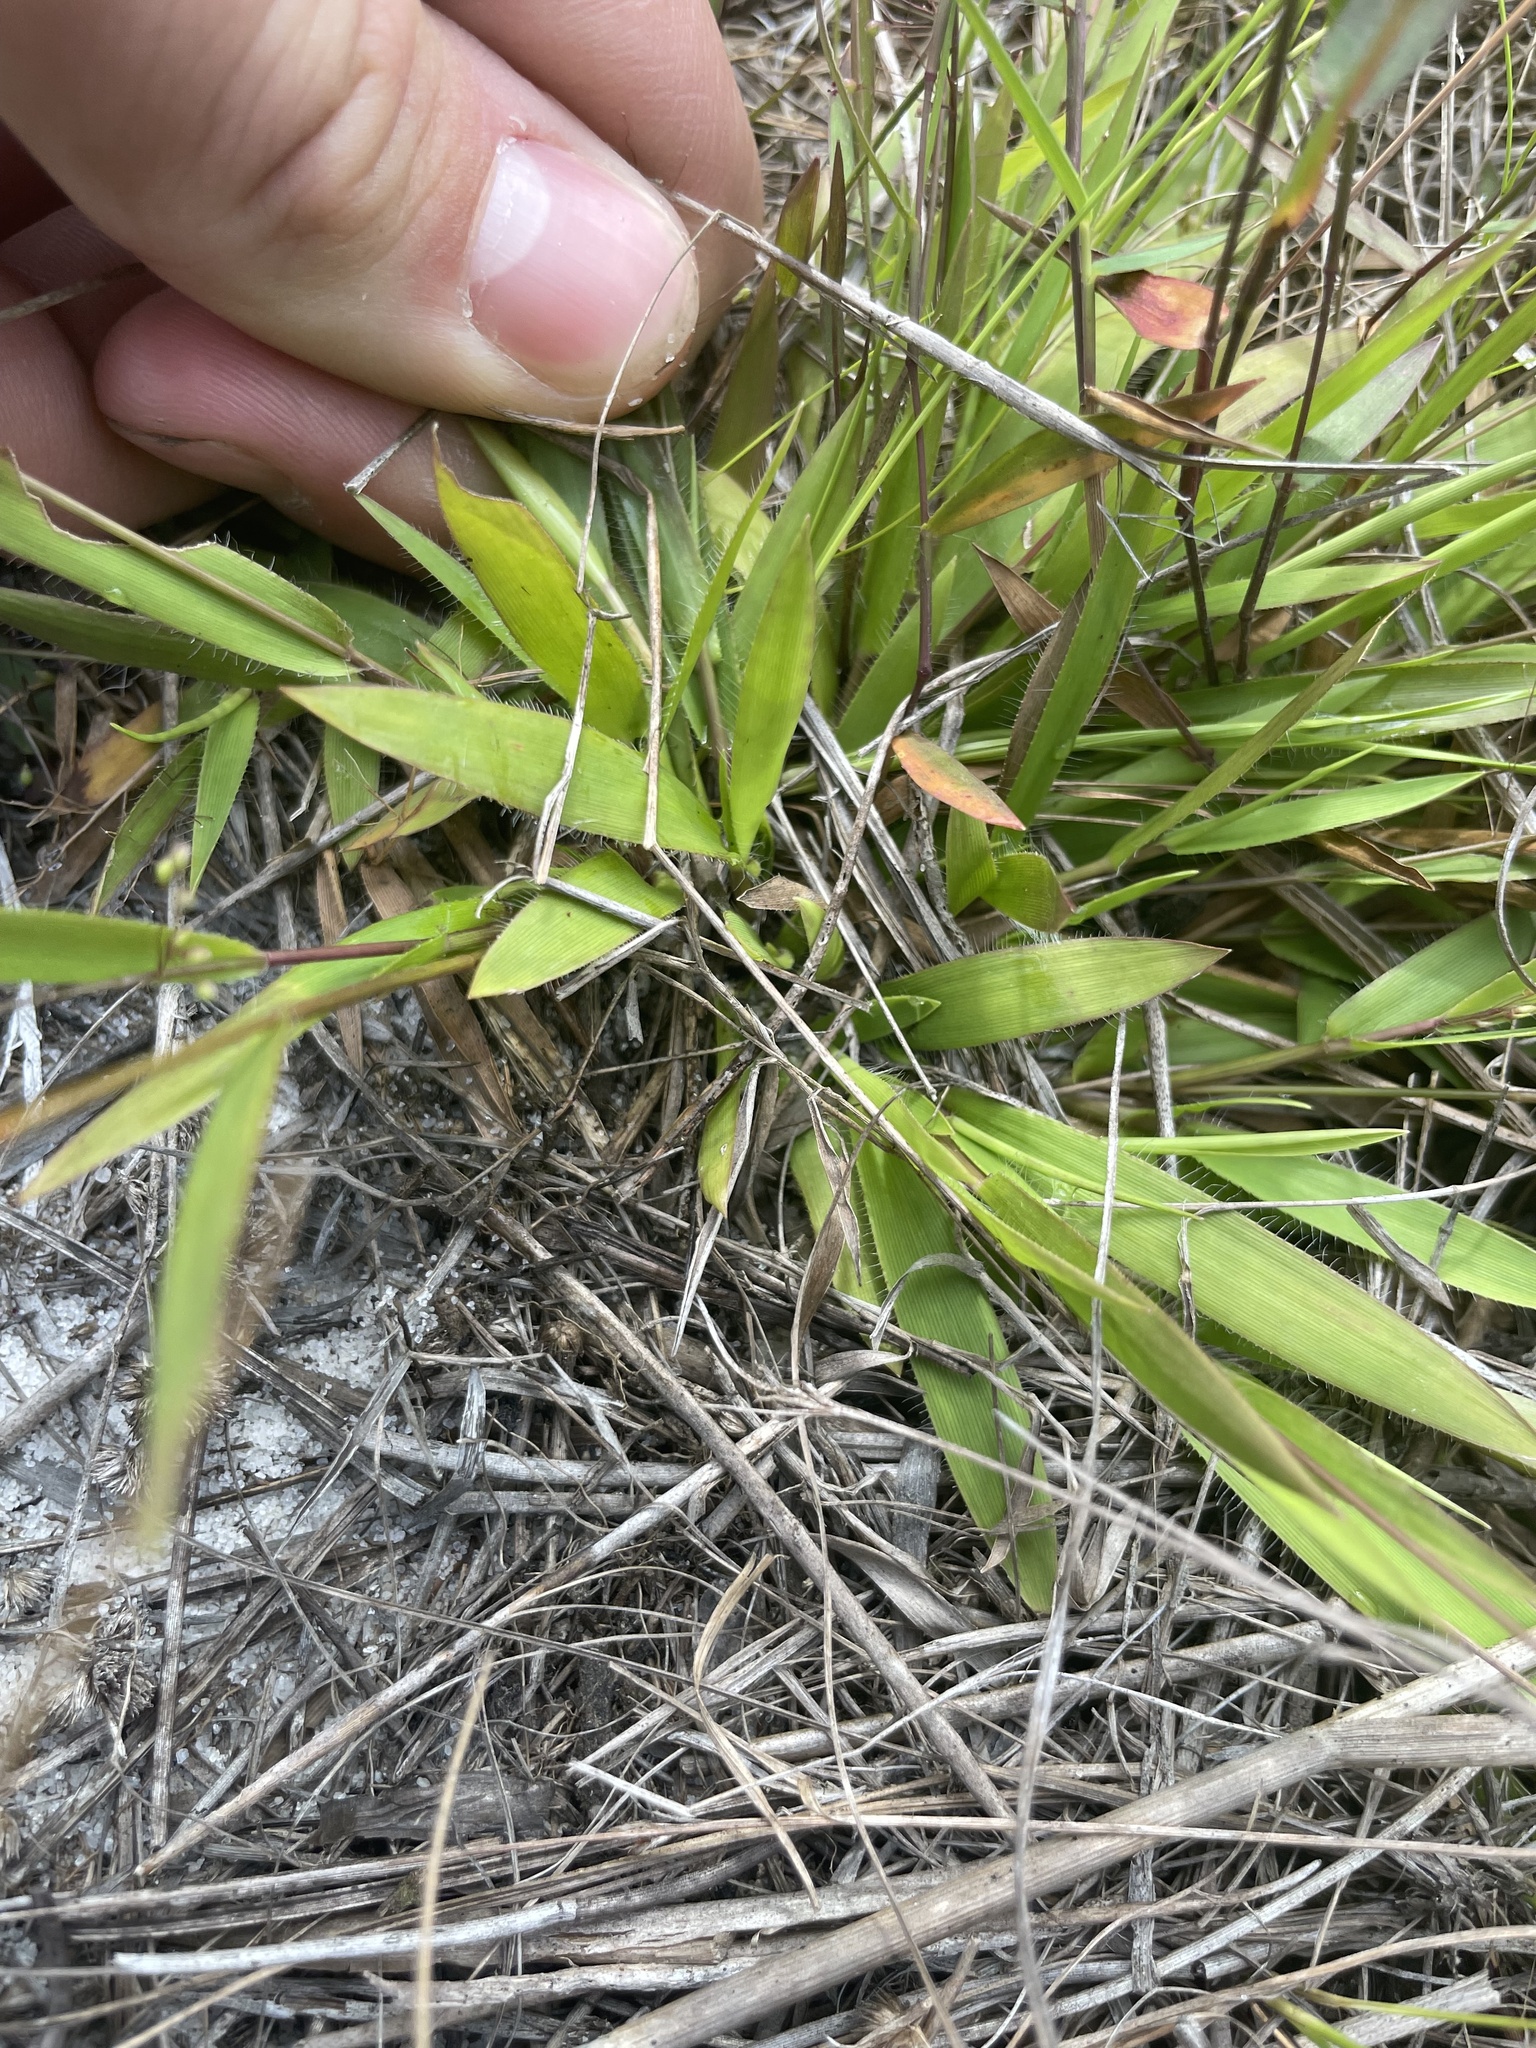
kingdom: Plantae
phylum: Tracheophyta
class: Liliopsida
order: Poales
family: Poaceae
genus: Dichanthelium
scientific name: Dichanthelium strigosum
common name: Cushion-tuft panic grass
